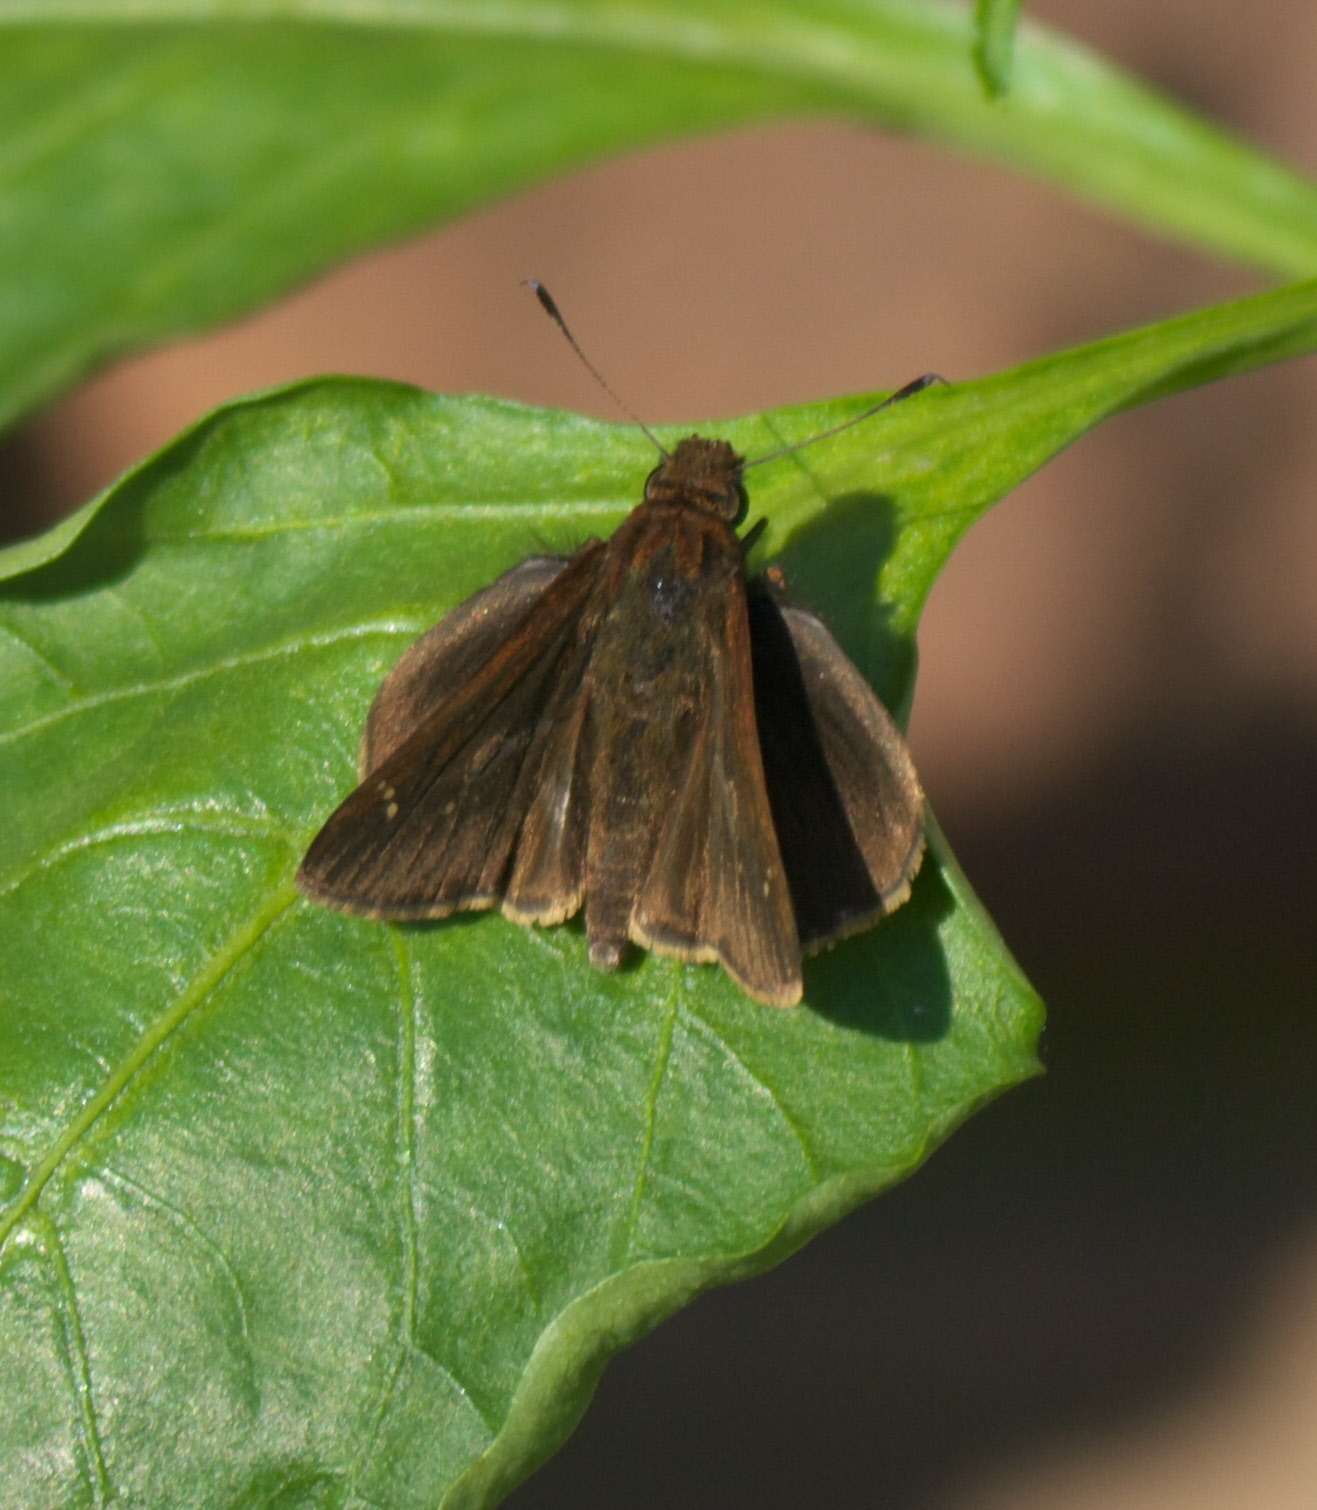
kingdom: Animalia
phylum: Arthropoda
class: Insecta
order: Lepidoptera
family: Hesperiidae
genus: Lerema
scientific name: Lerema accius
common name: Clouded skipper
